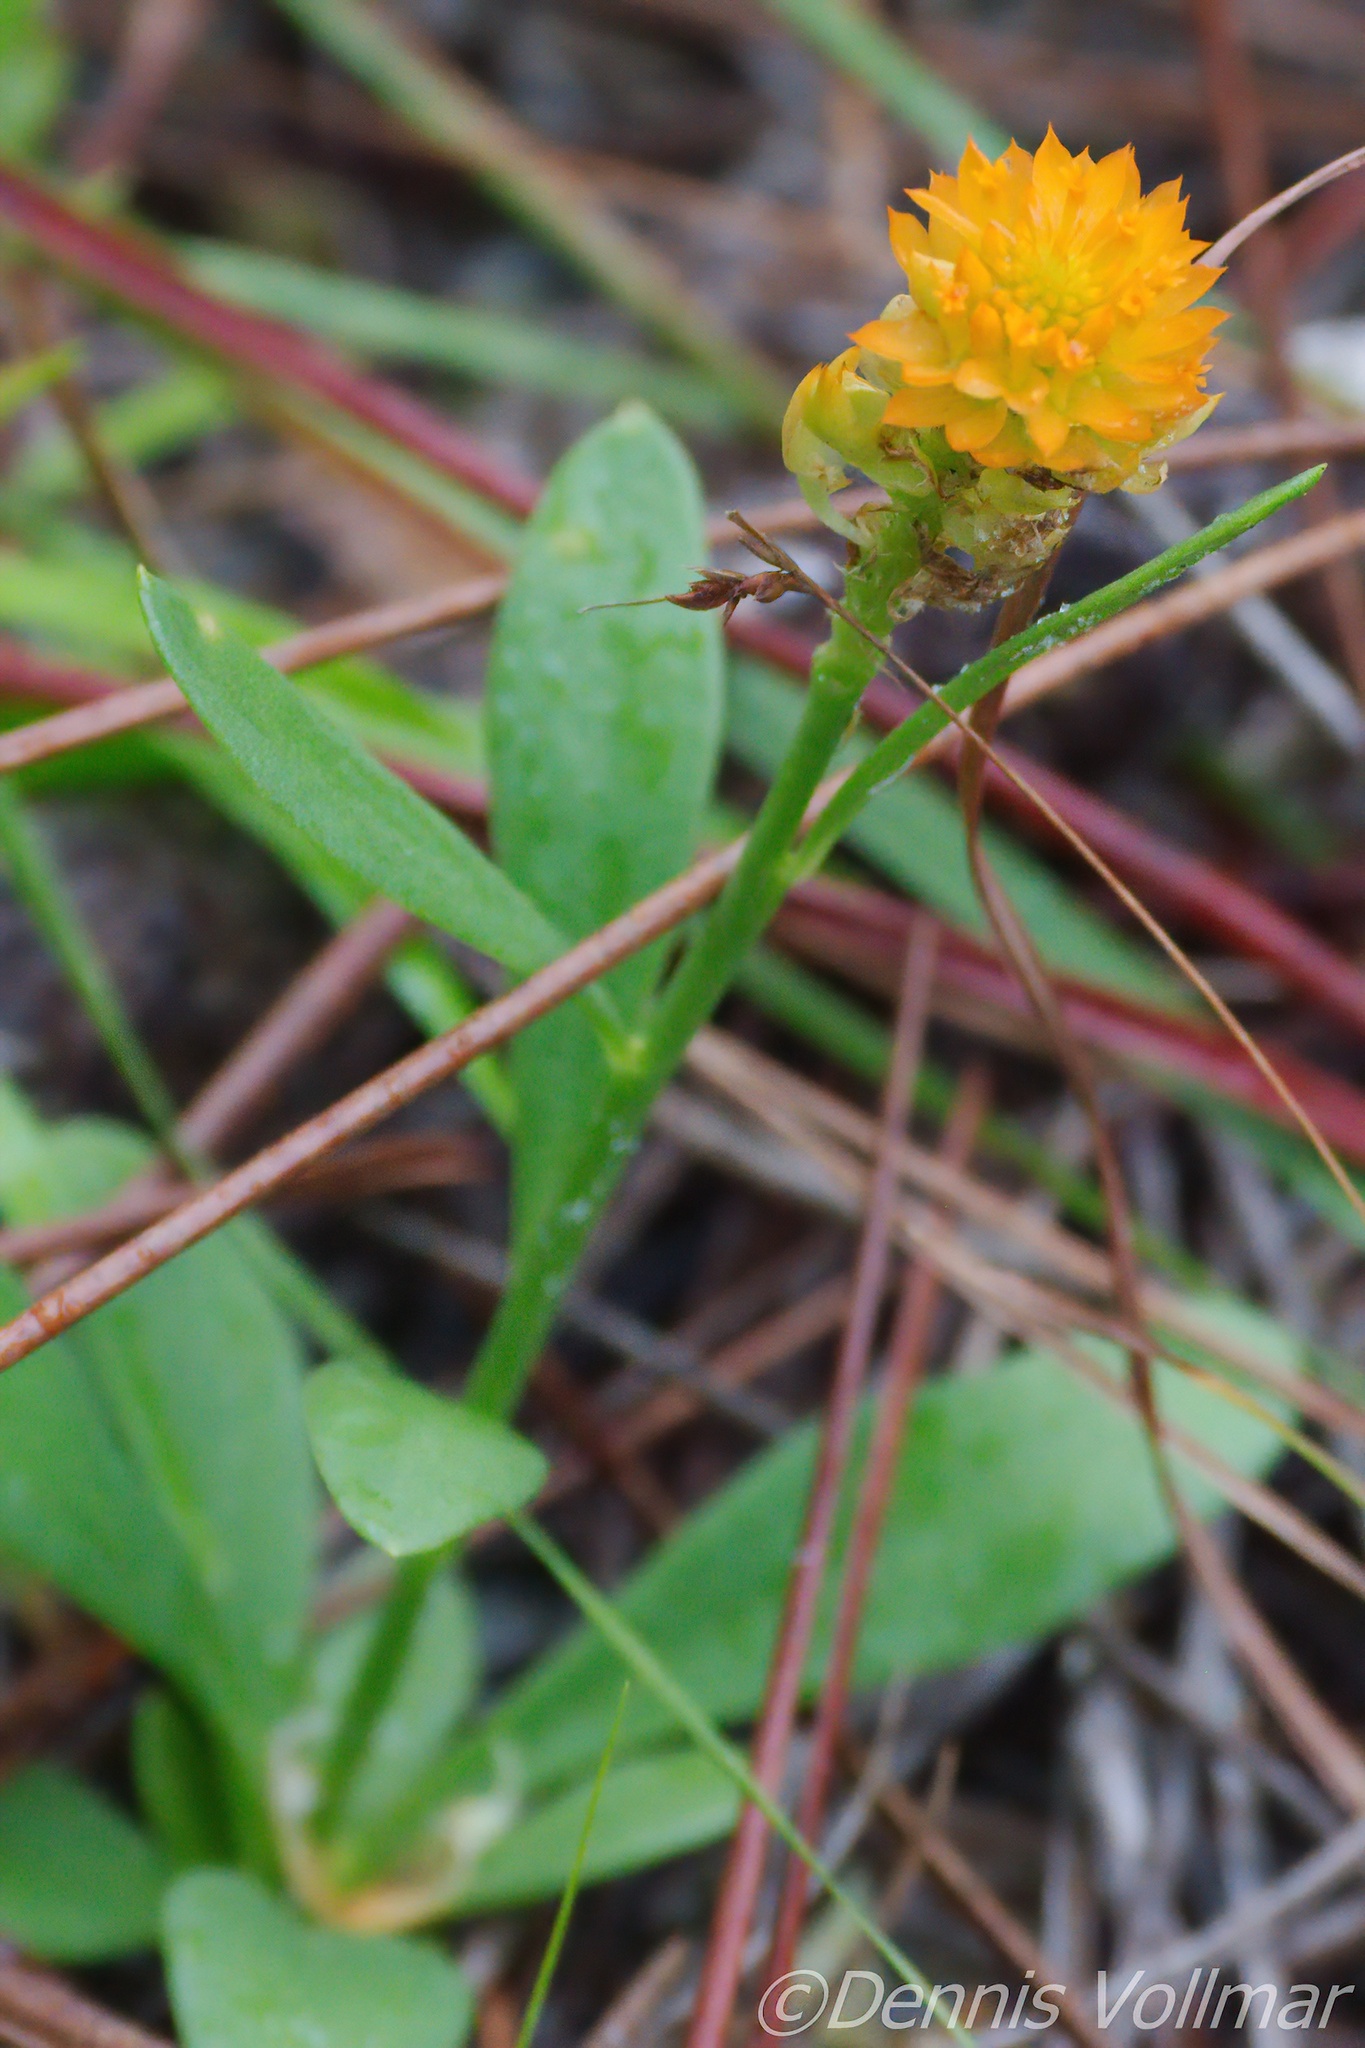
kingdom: Plantae
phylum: Tracheophyta
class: Magnoliopsida
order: Fabales
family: Polygalaceae
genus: Polygala
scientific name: Polygala lutea
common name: Orange milkwort
